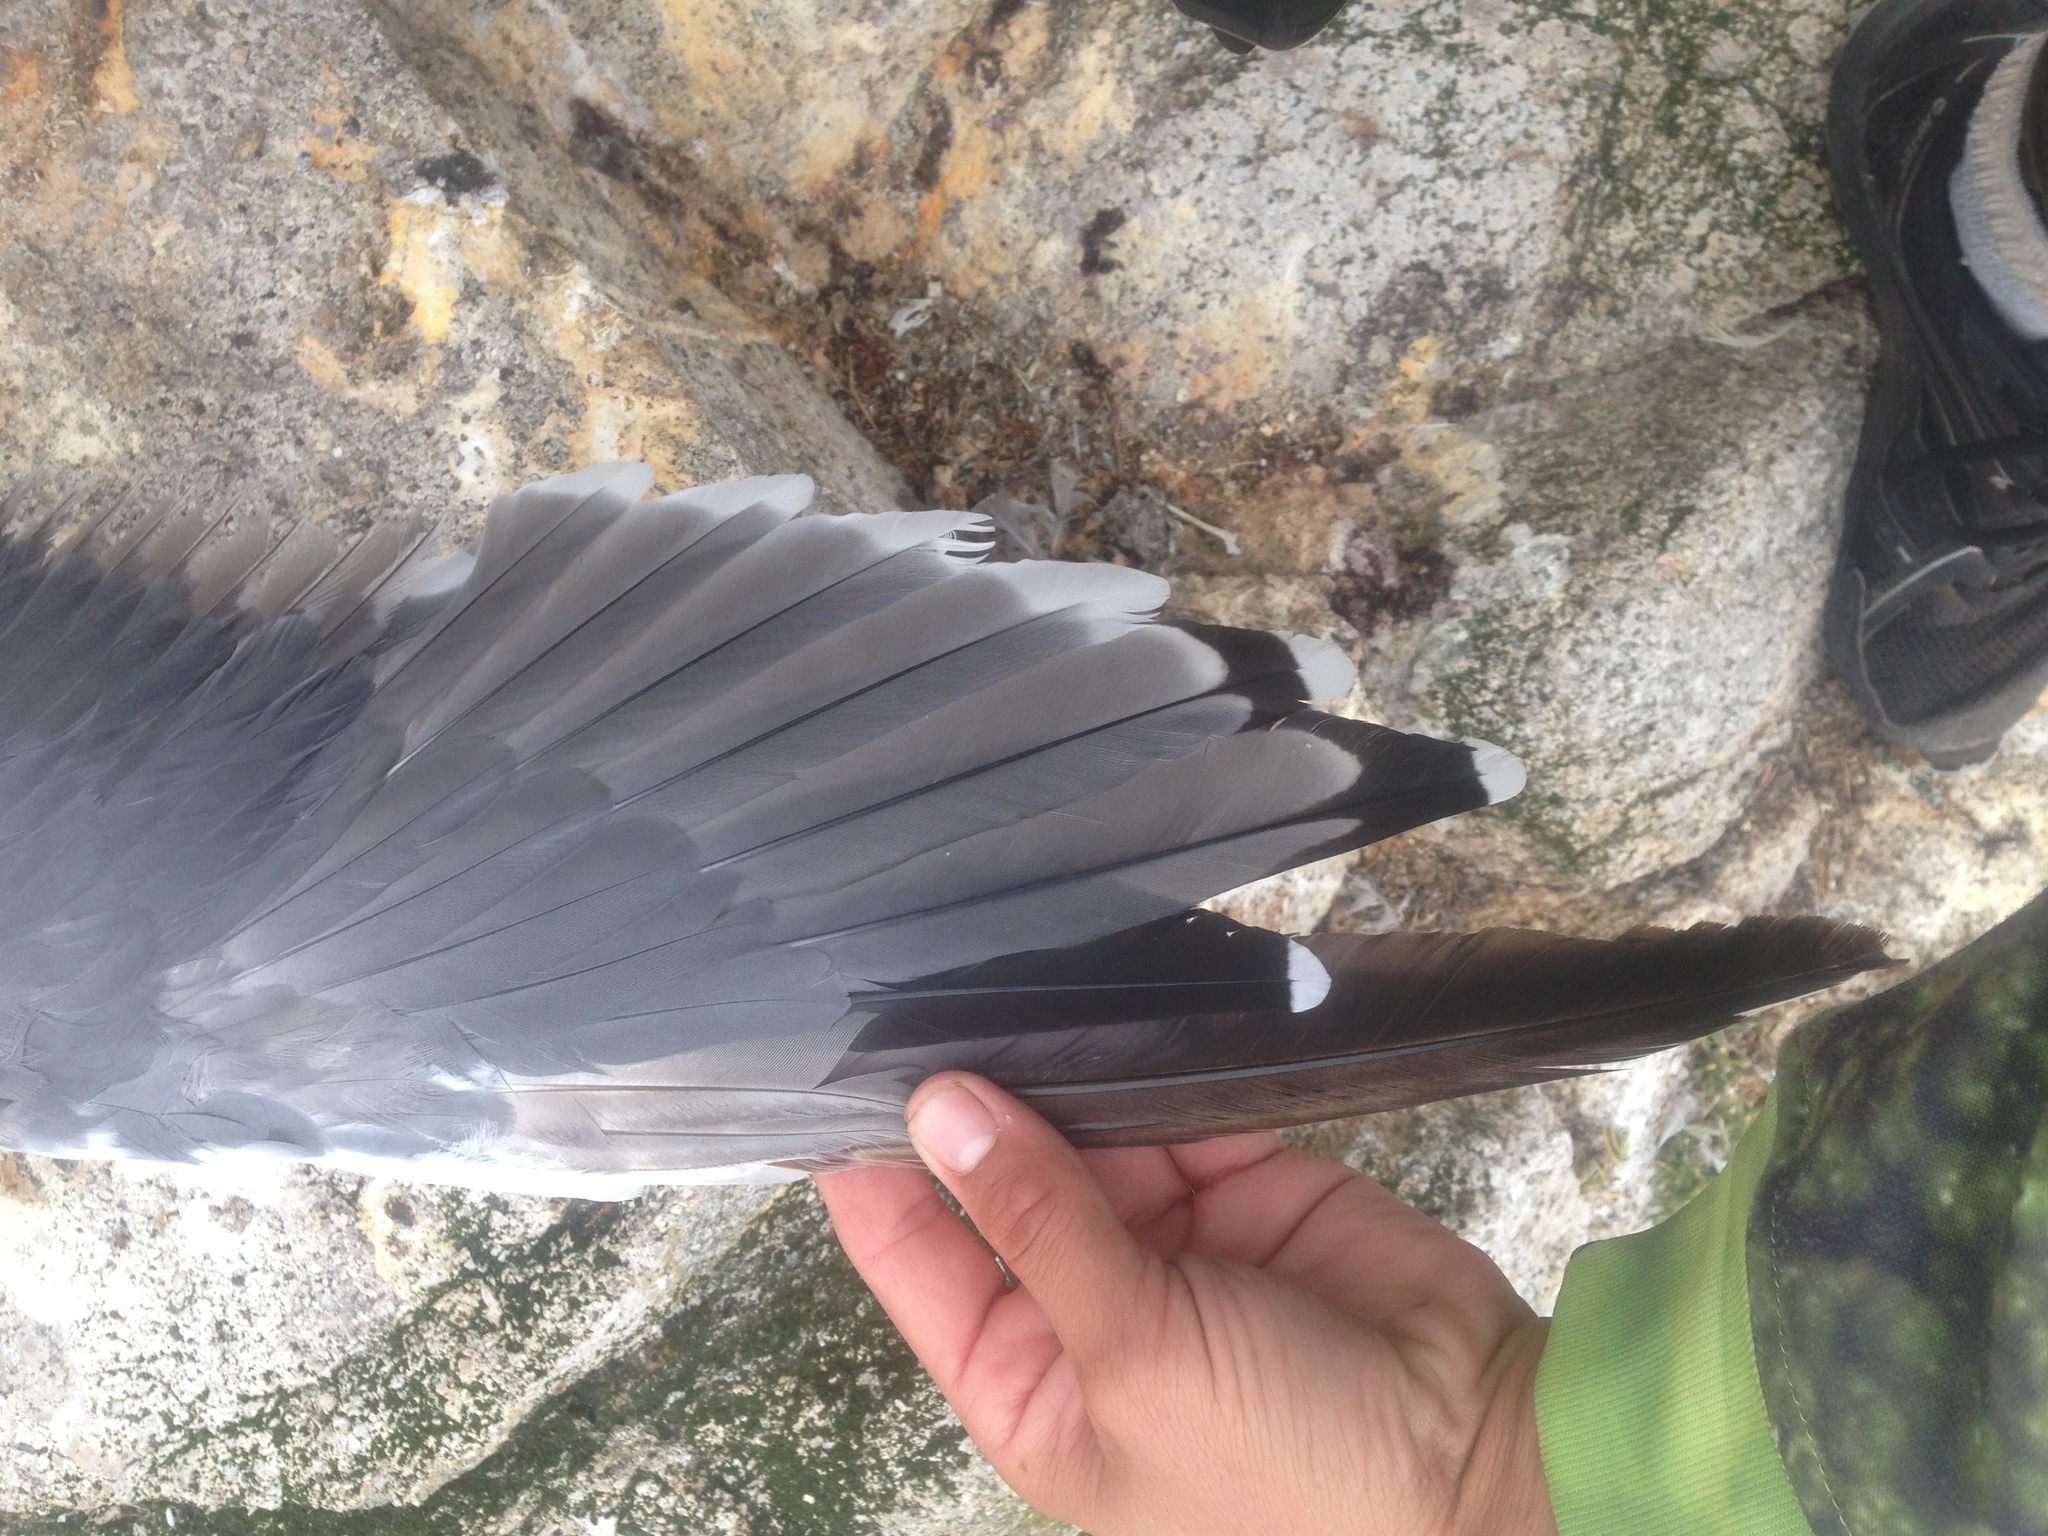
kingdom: Animalia
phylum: Chordata
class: Aves
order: Charadriiformes
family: Laridae
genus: Larus
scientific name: Larus occidentalis
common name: Western gull
